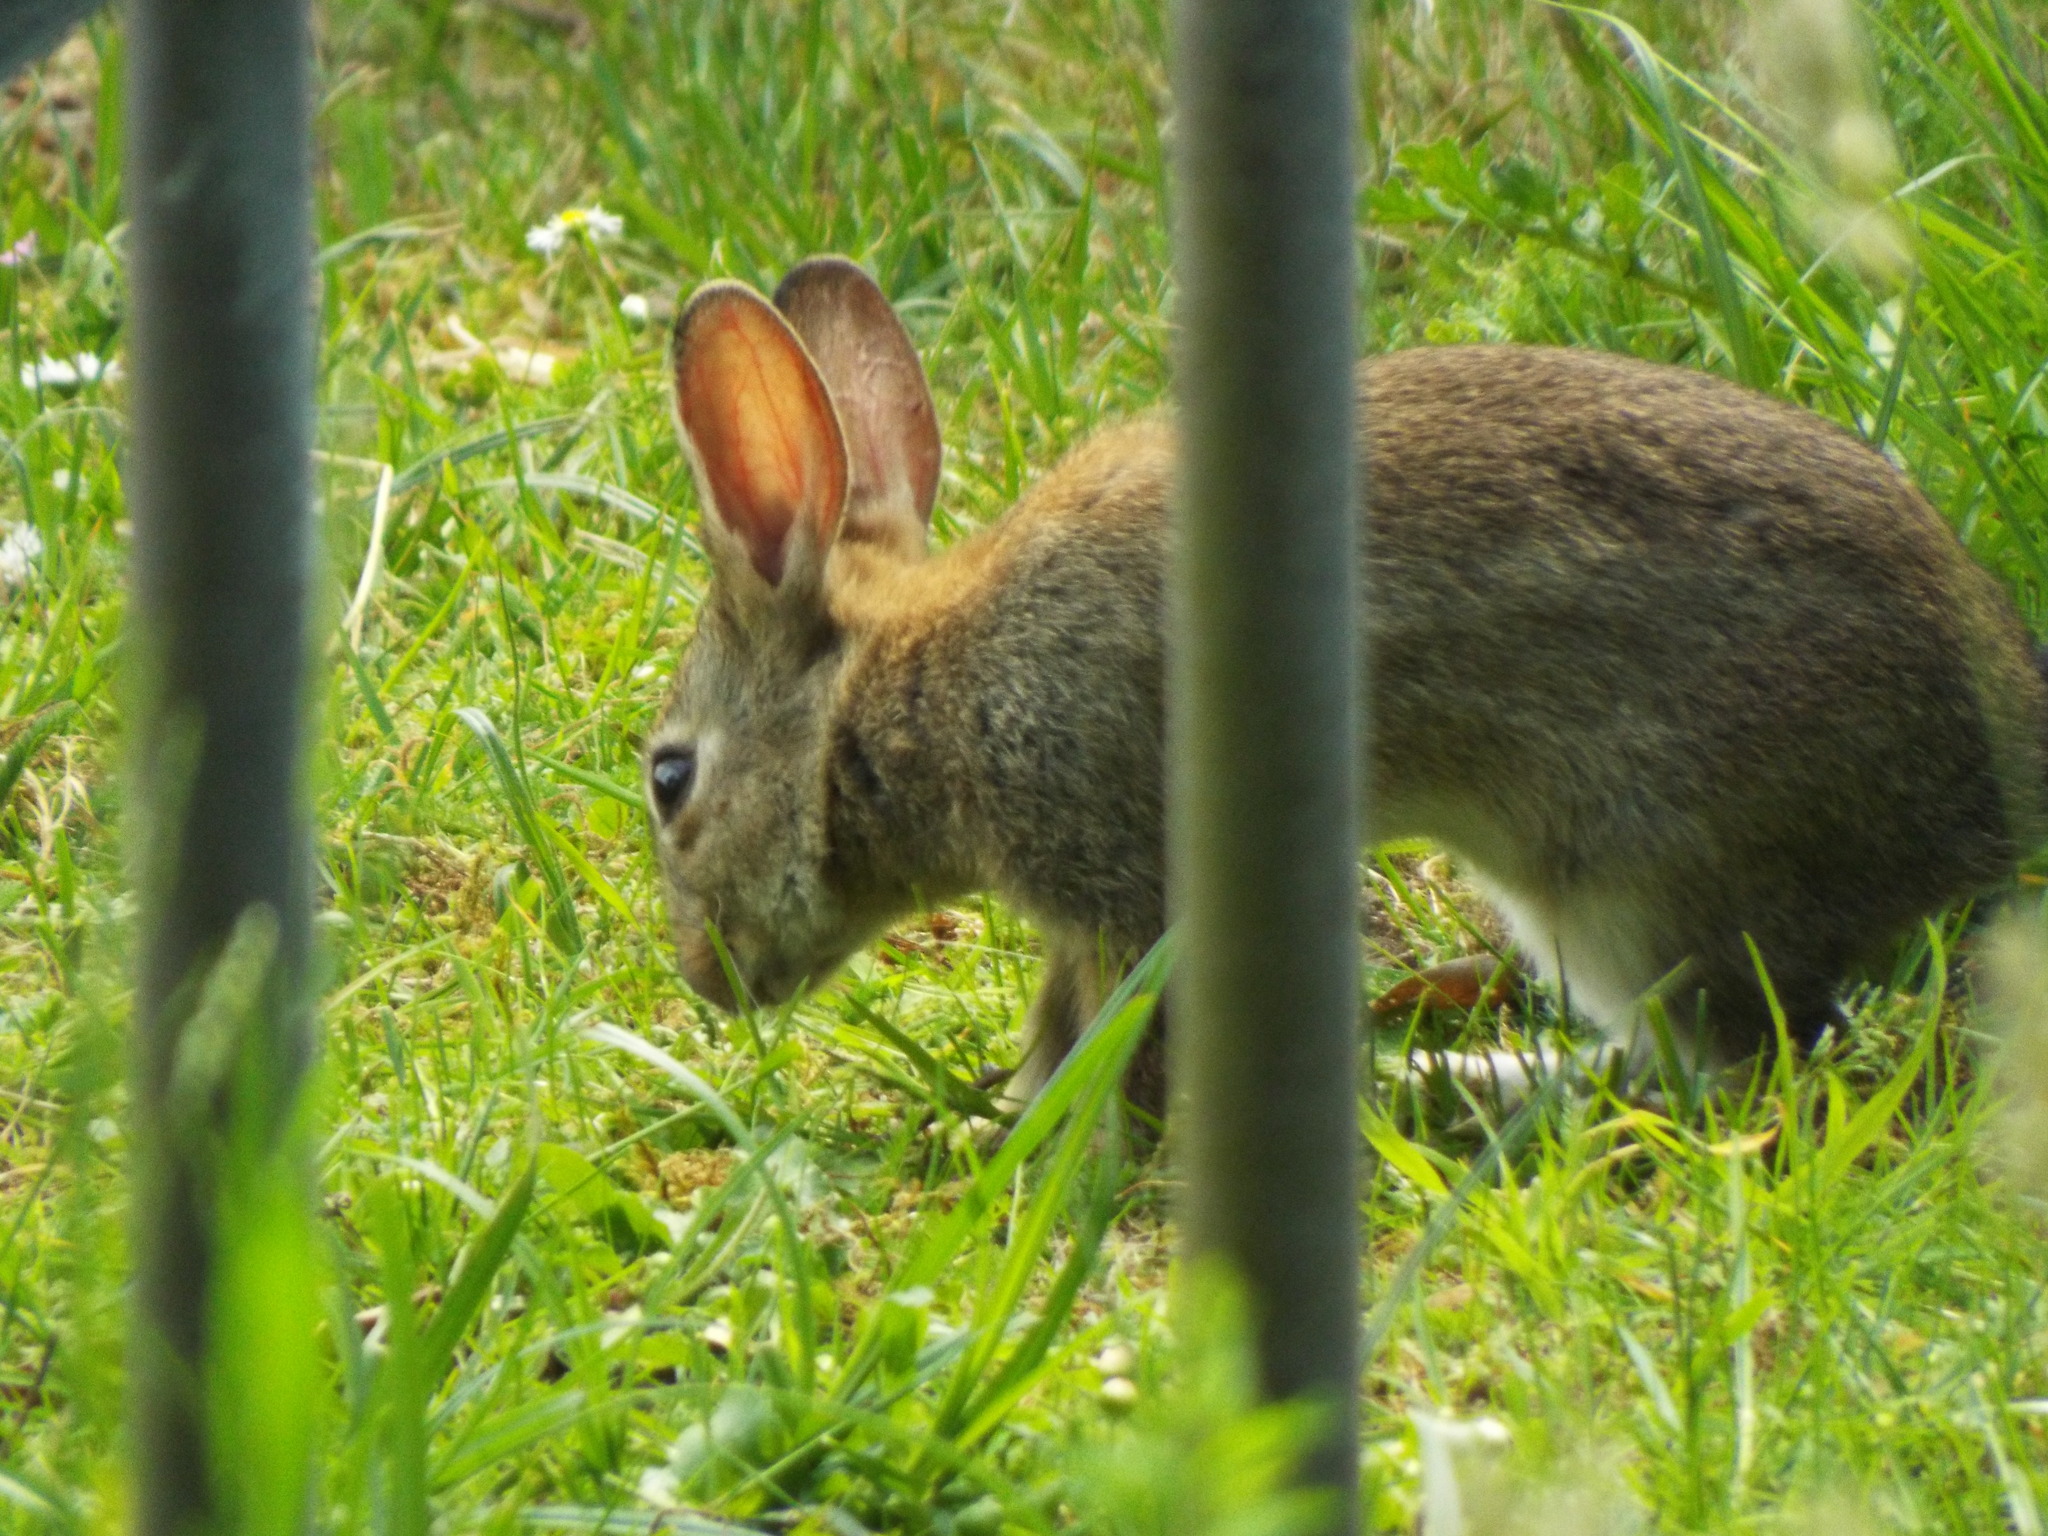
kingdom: Animalia
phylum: Chordata
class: Mammalia
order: Lagomorpha
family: Leporidae
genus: Oryctolagus
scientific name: Oryctolagus cuniculus
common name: European rabbit
